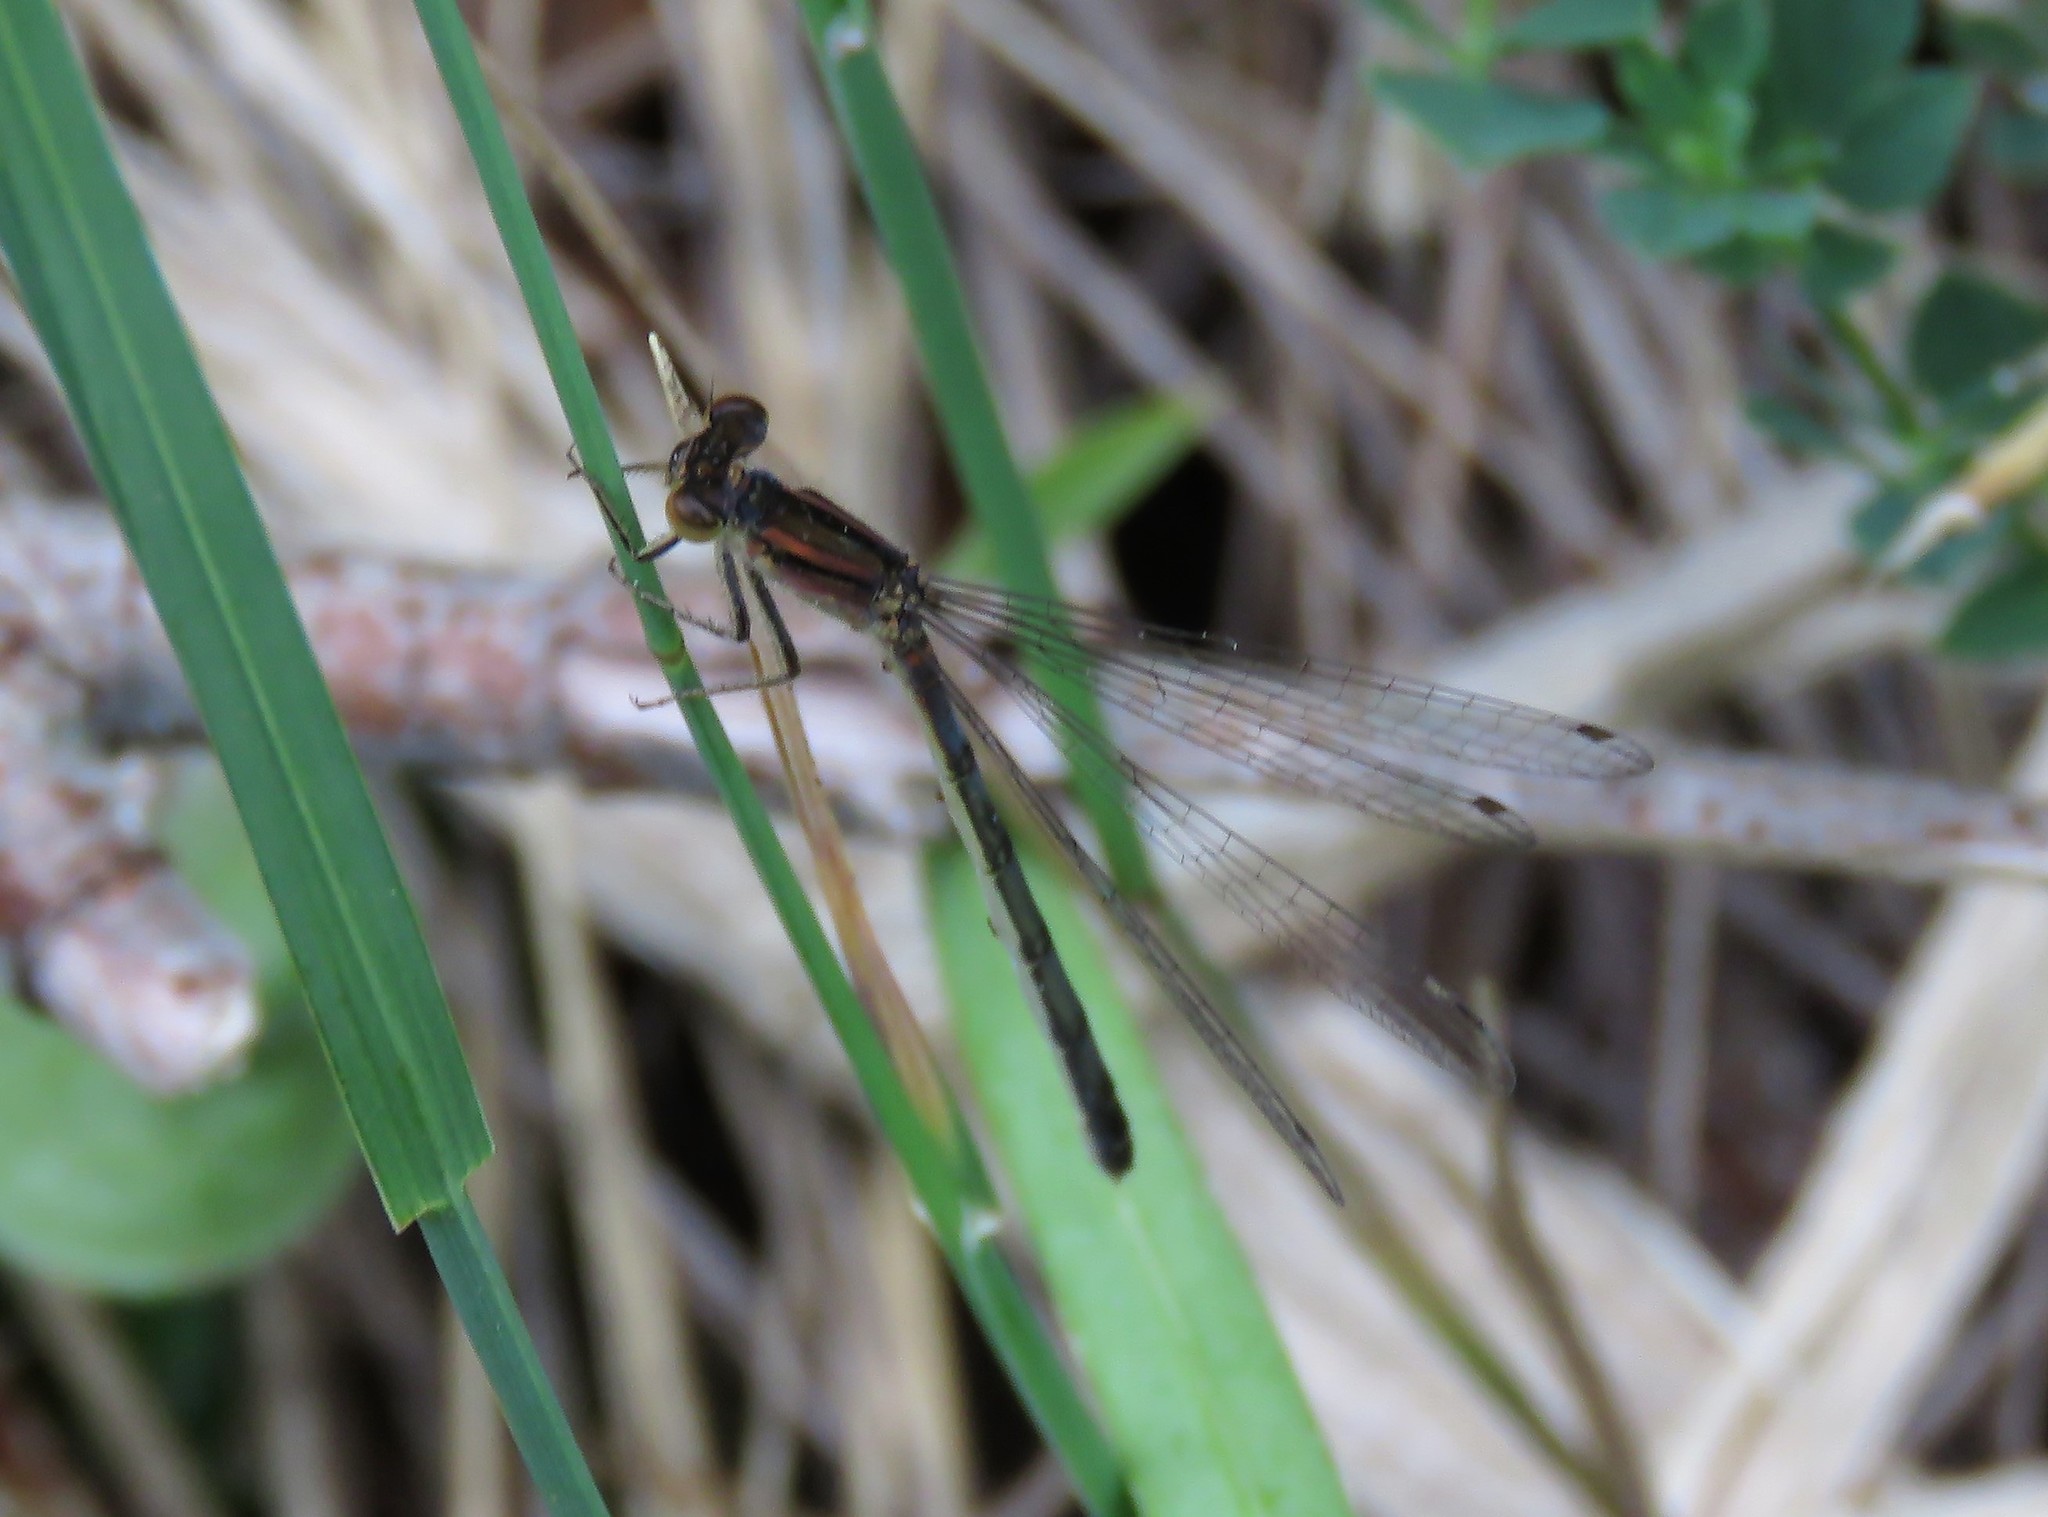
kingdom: Animalia
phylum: Arthropoda
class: Insecta
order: Odonata
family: Coenagrionidae
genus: Ischnura
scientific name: Ischnura verticalis
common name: Eastern forktail
